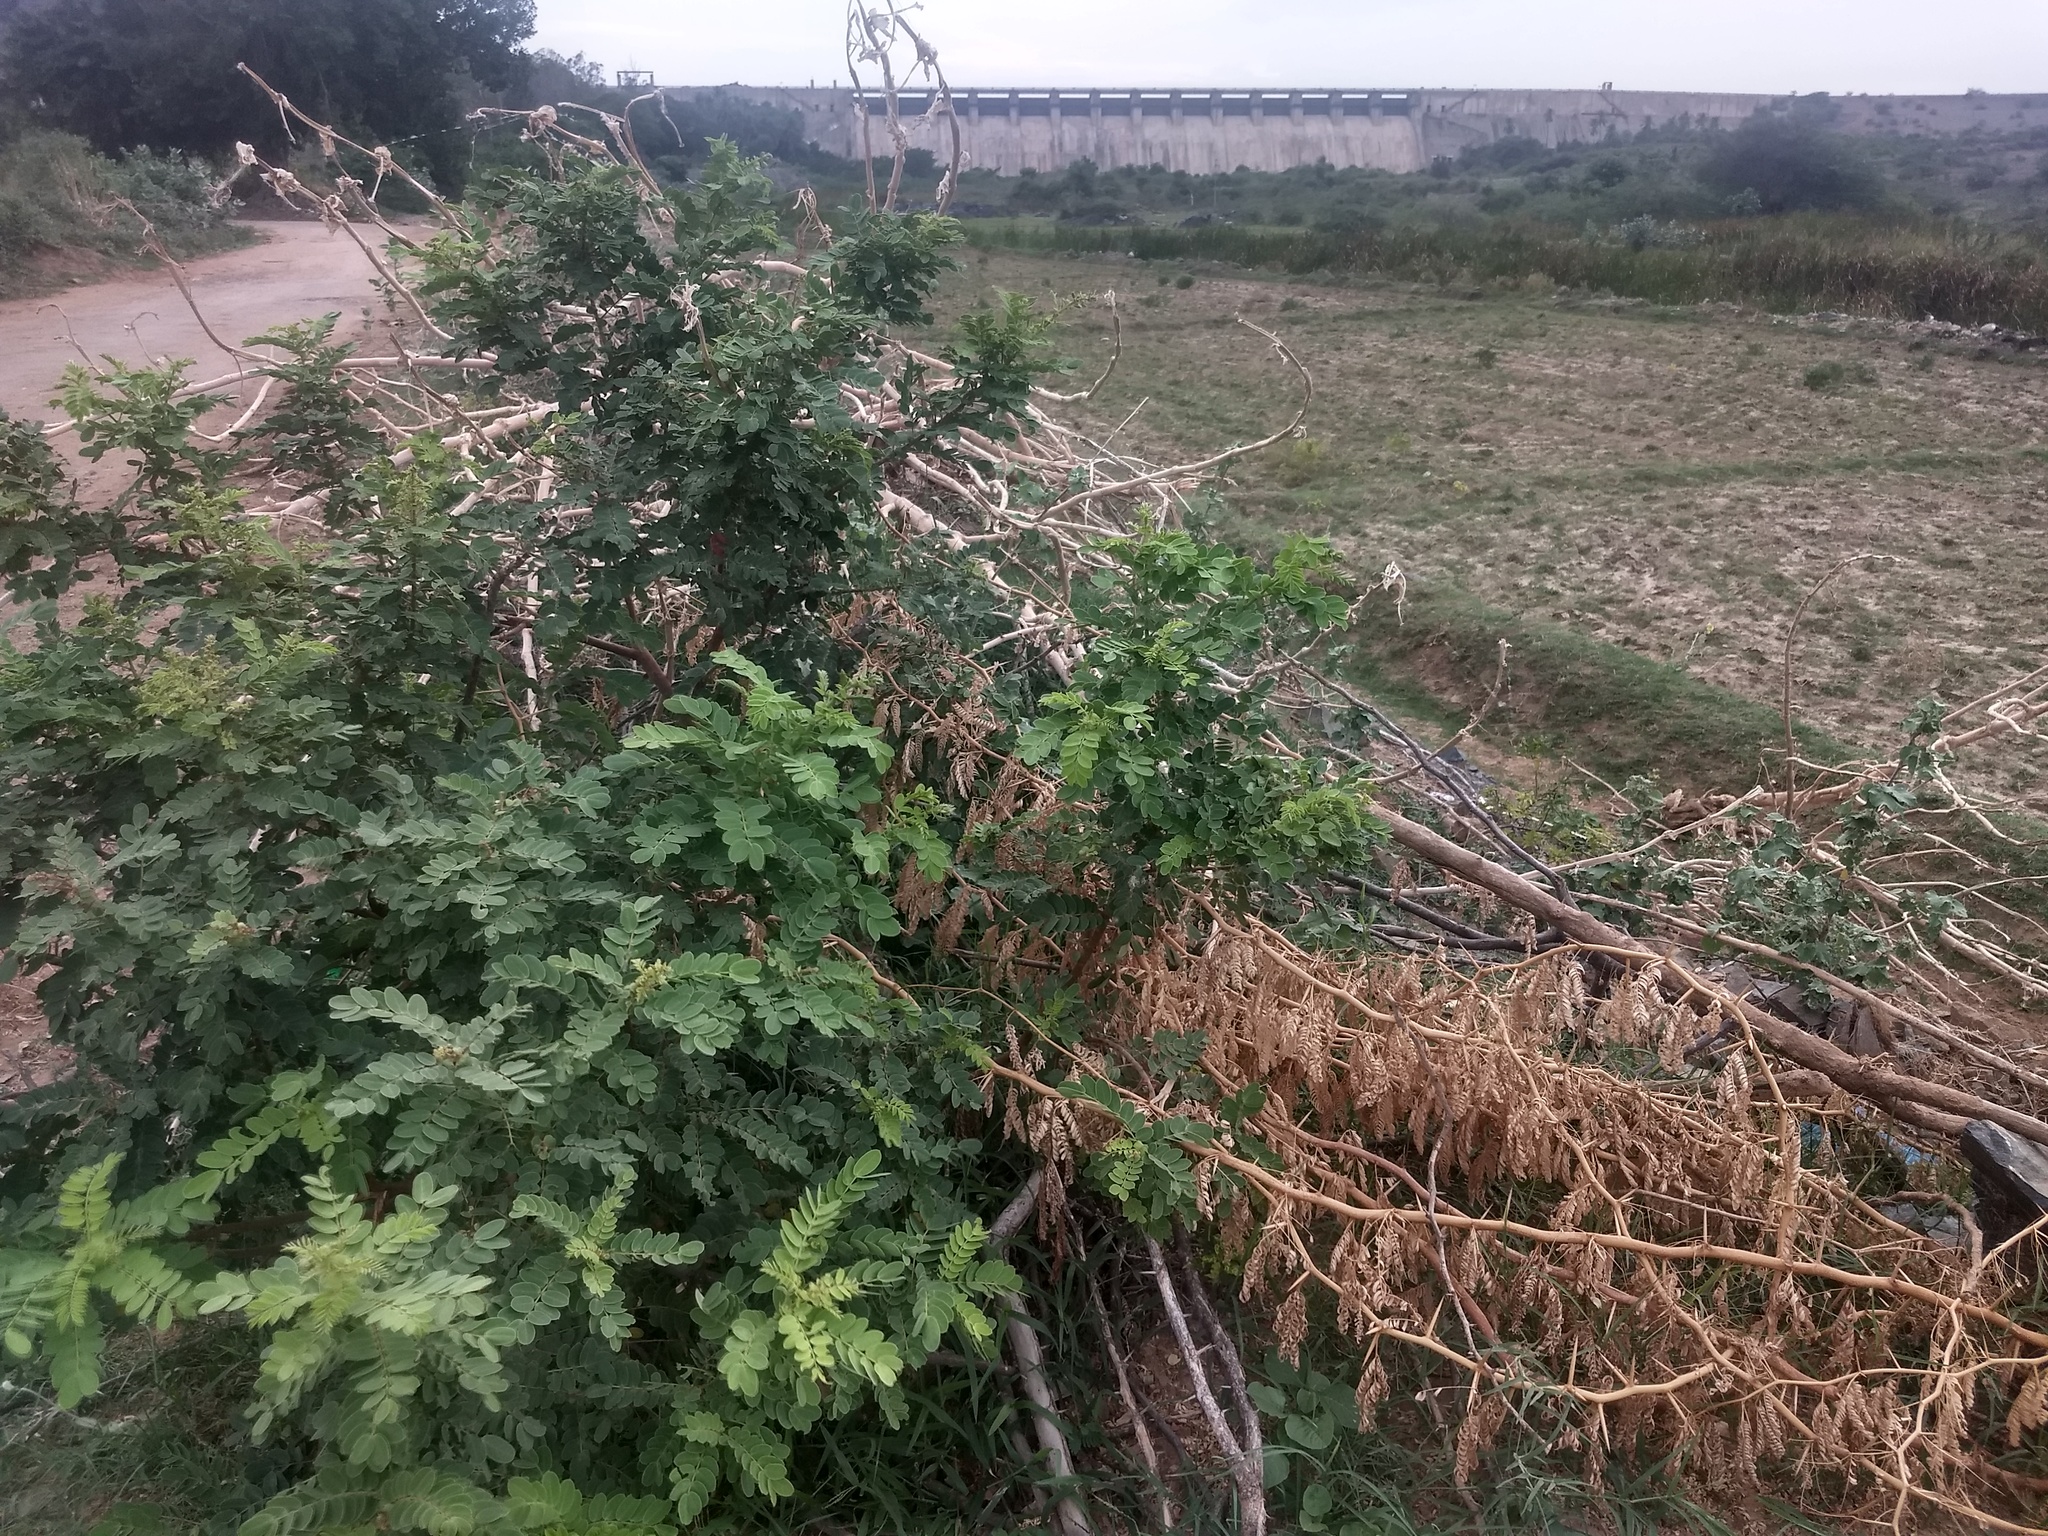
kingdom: Plantae
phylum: Tracheophyta
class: Magnoliopsida
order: Fabales
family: Fabaceae
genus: Senna
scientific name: Senna auriculata
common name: Tanner's cassia
